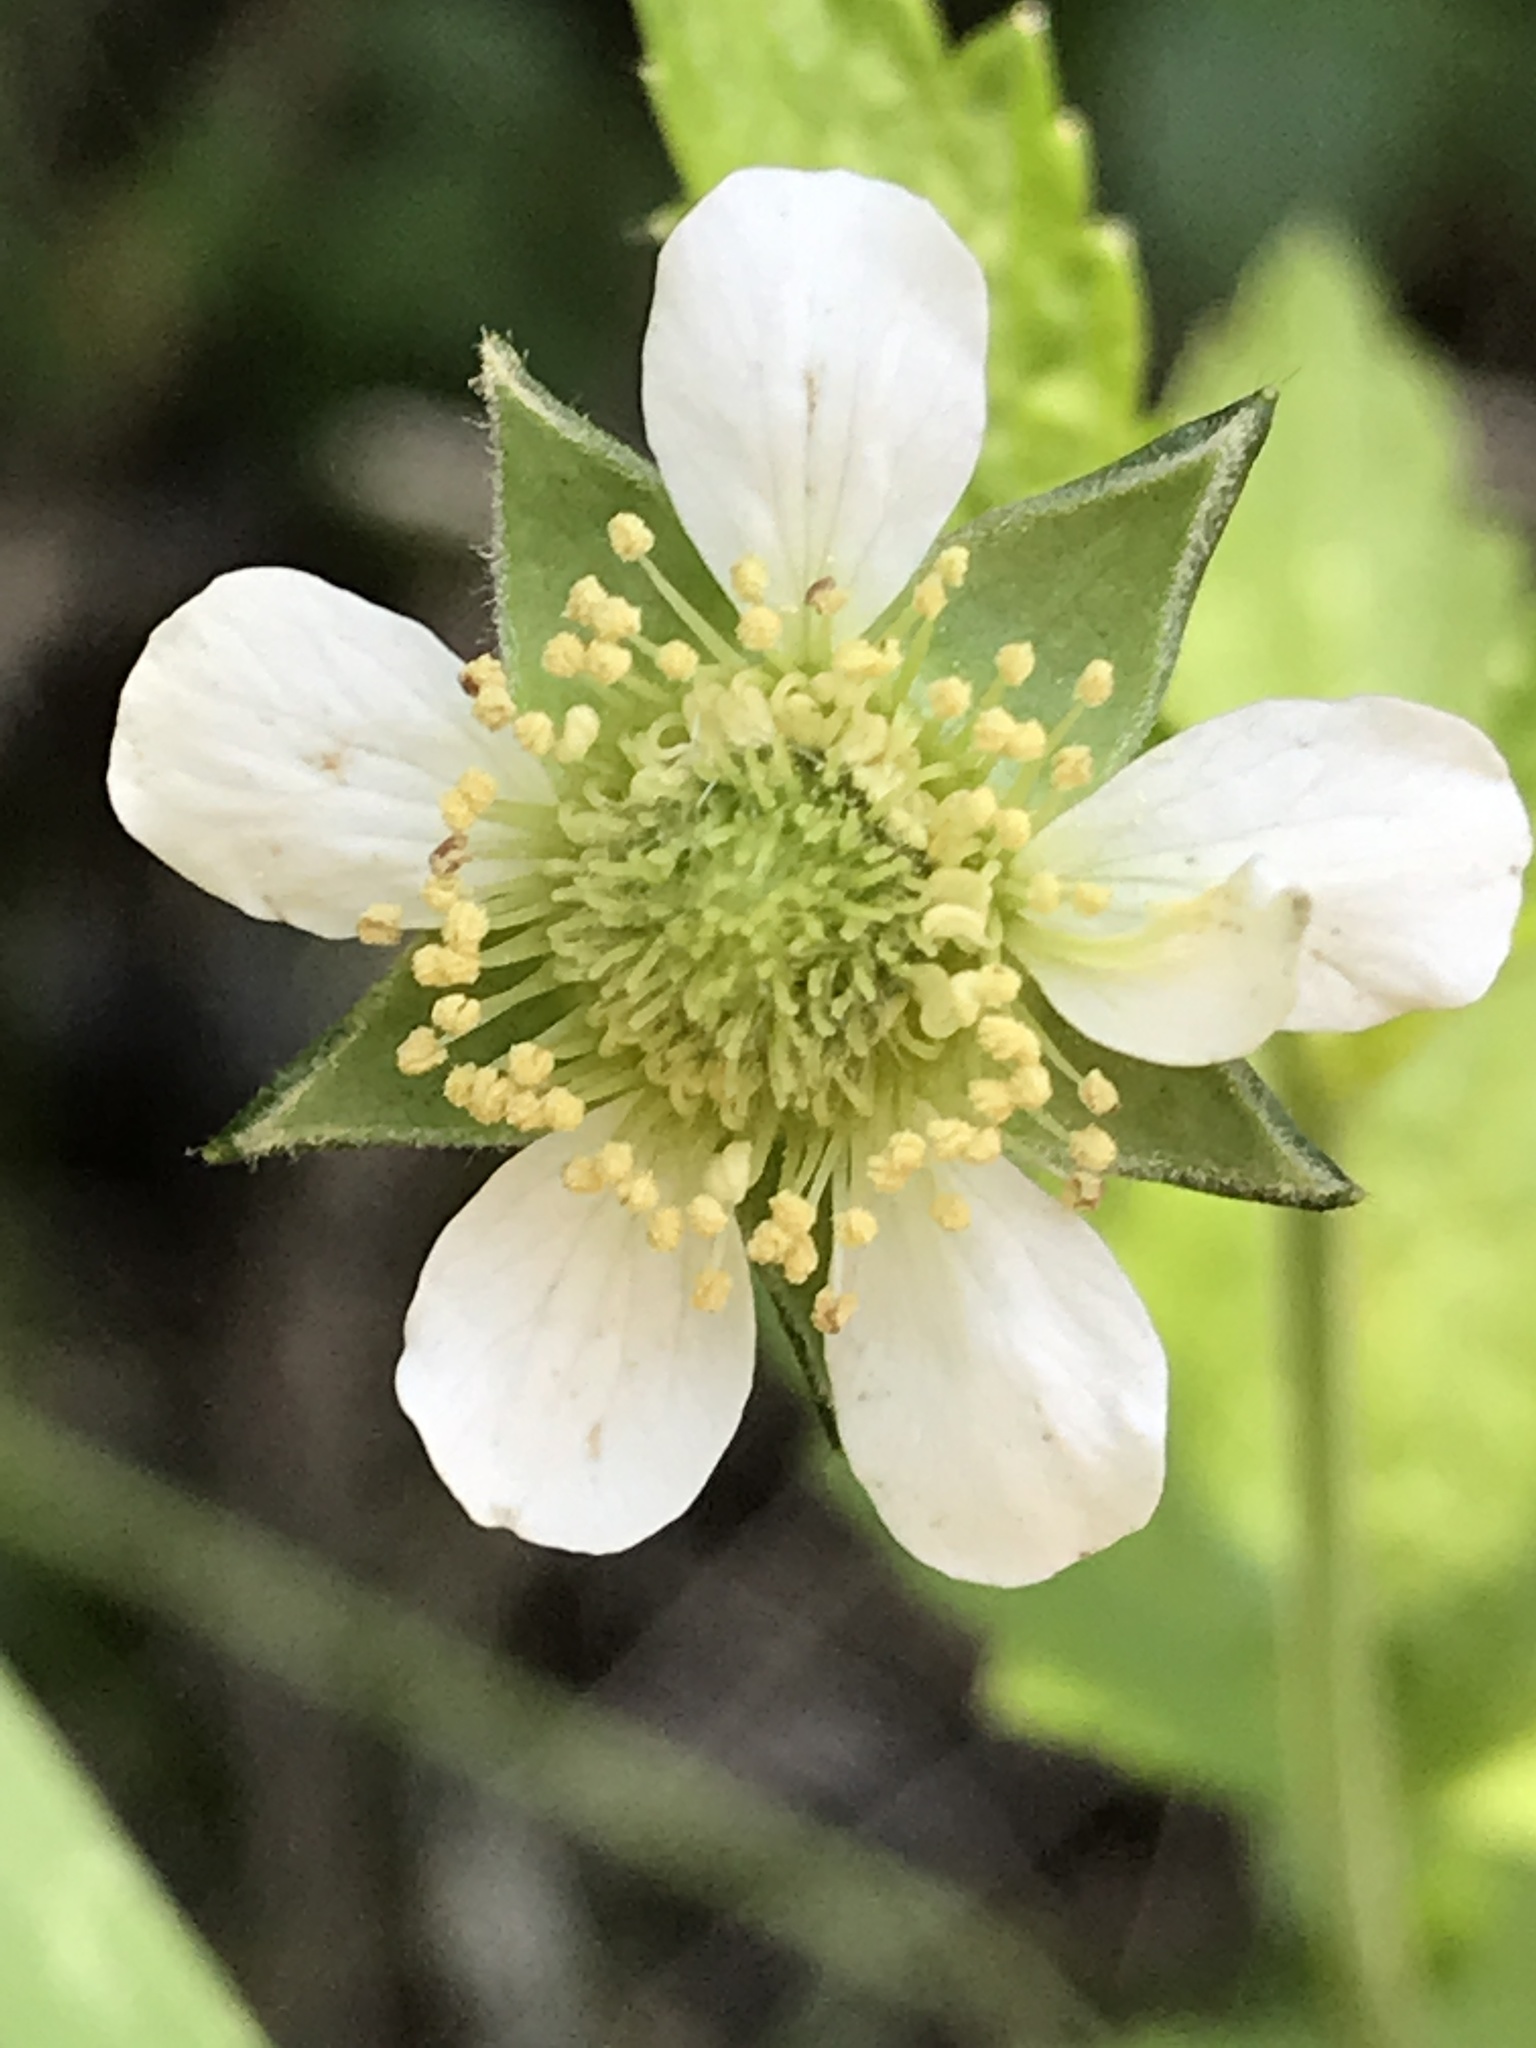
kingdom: Plantae
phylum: Tracheophyta
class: Magnoliopsida
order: Rosales
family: Rosaceae
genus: Geum
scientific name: Geum canadense
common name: White avens
